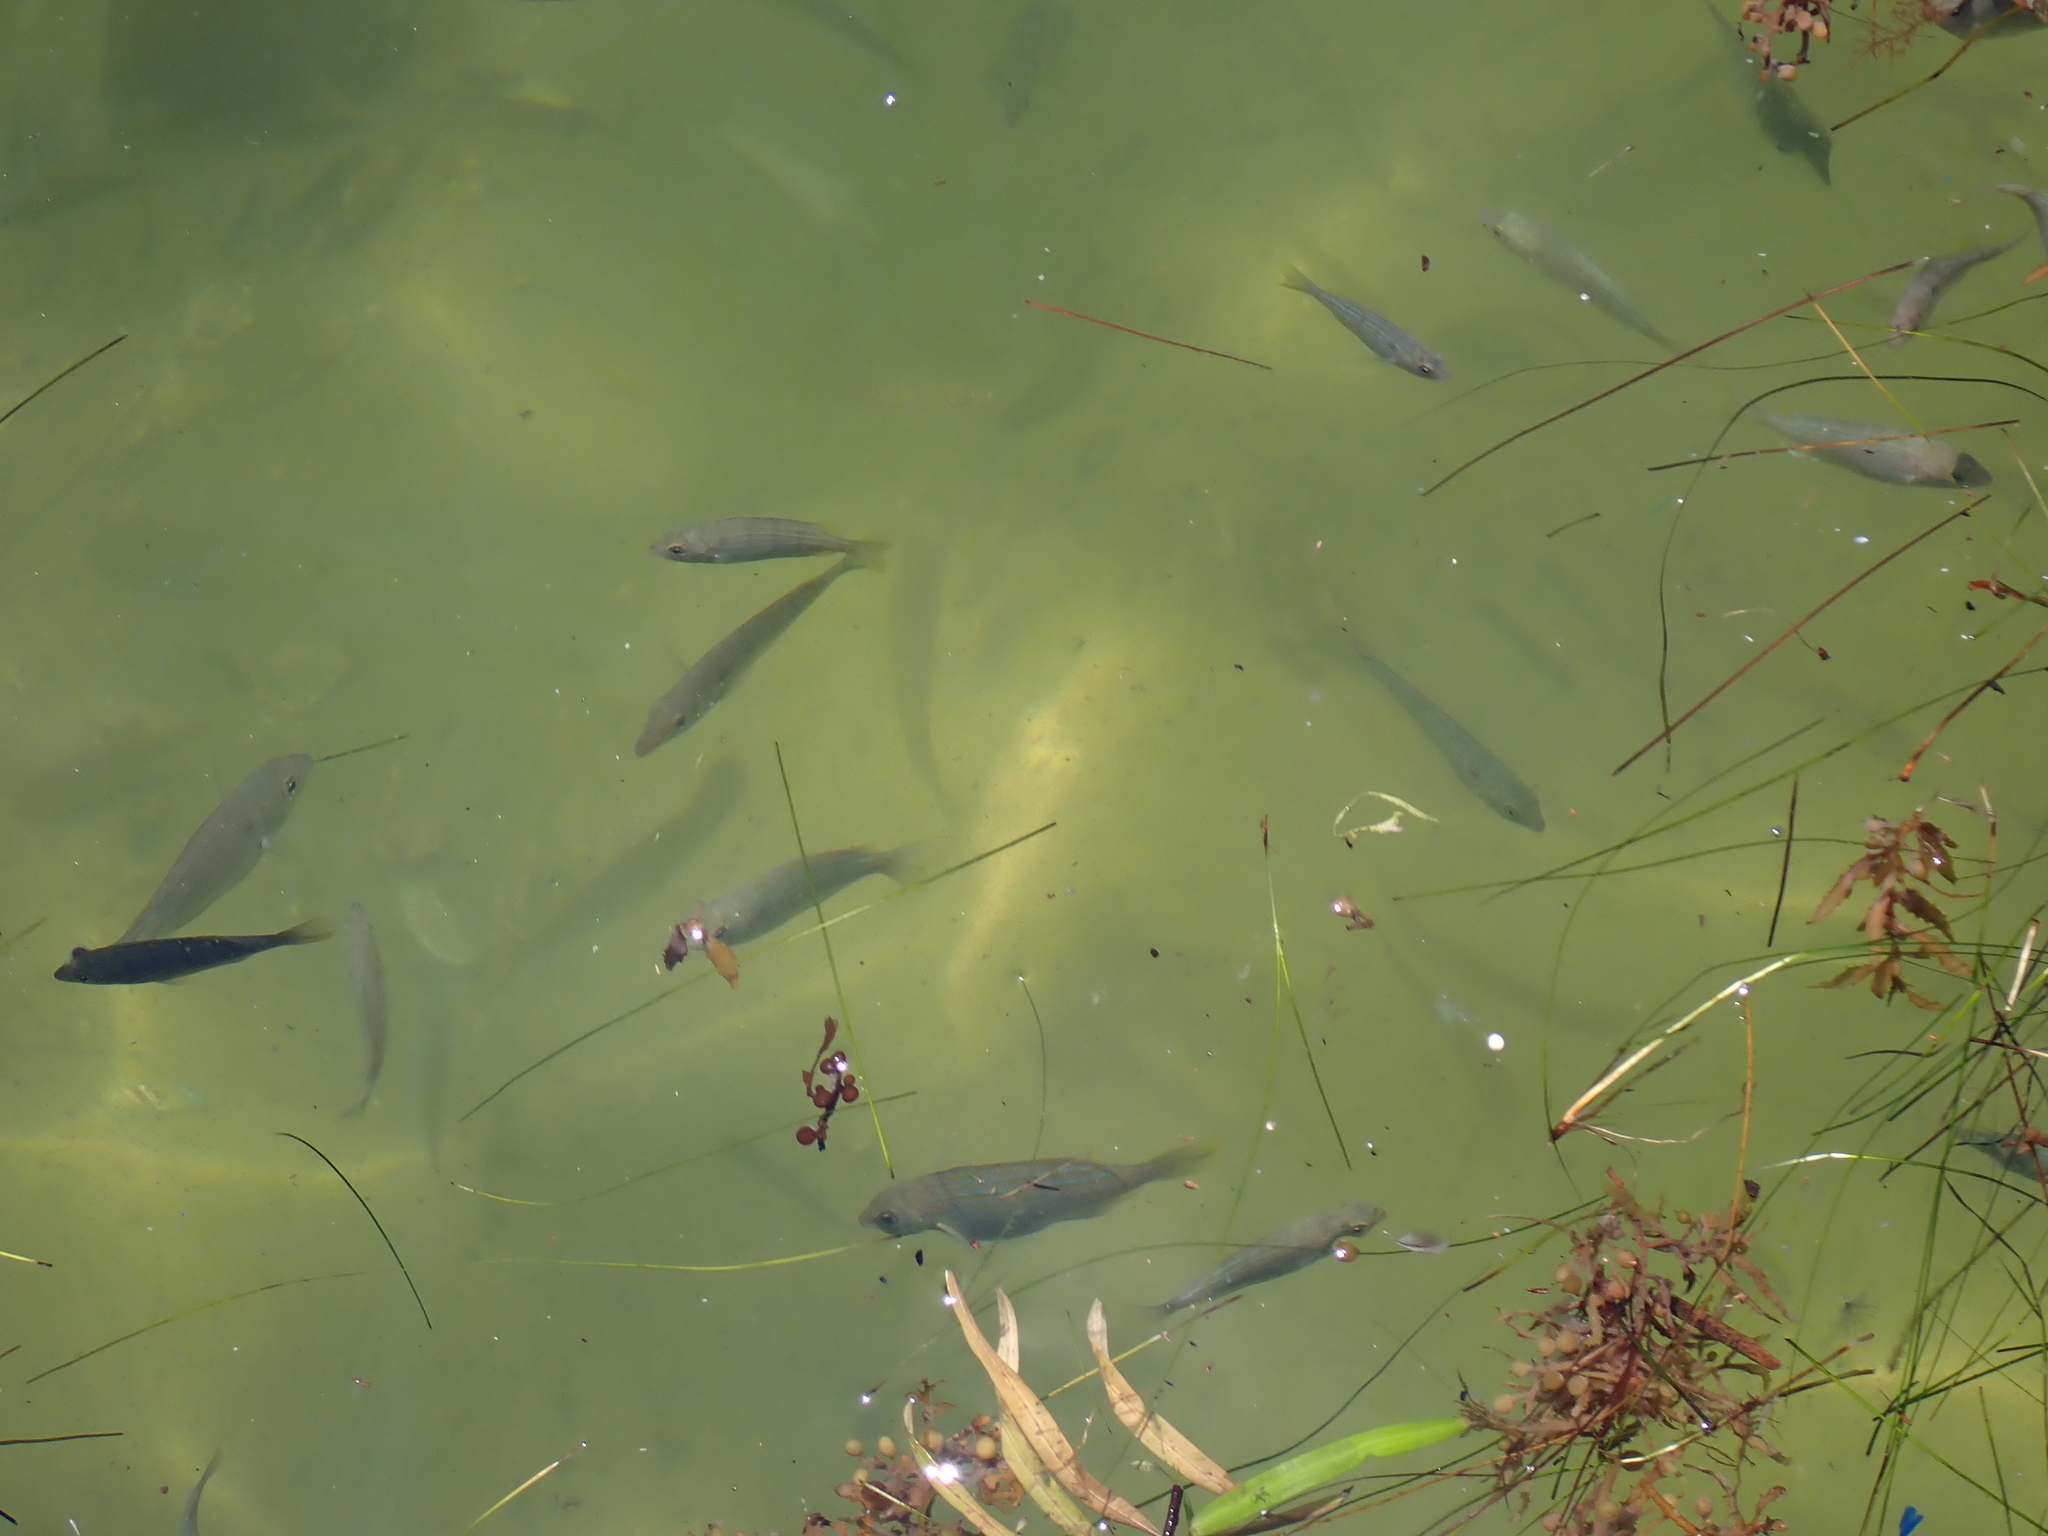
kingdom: Animalia
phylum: Chordata
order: Perciformes
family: Sparidae
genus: Lagodon
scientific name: Lagodon rhomboides
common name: Pinfish
